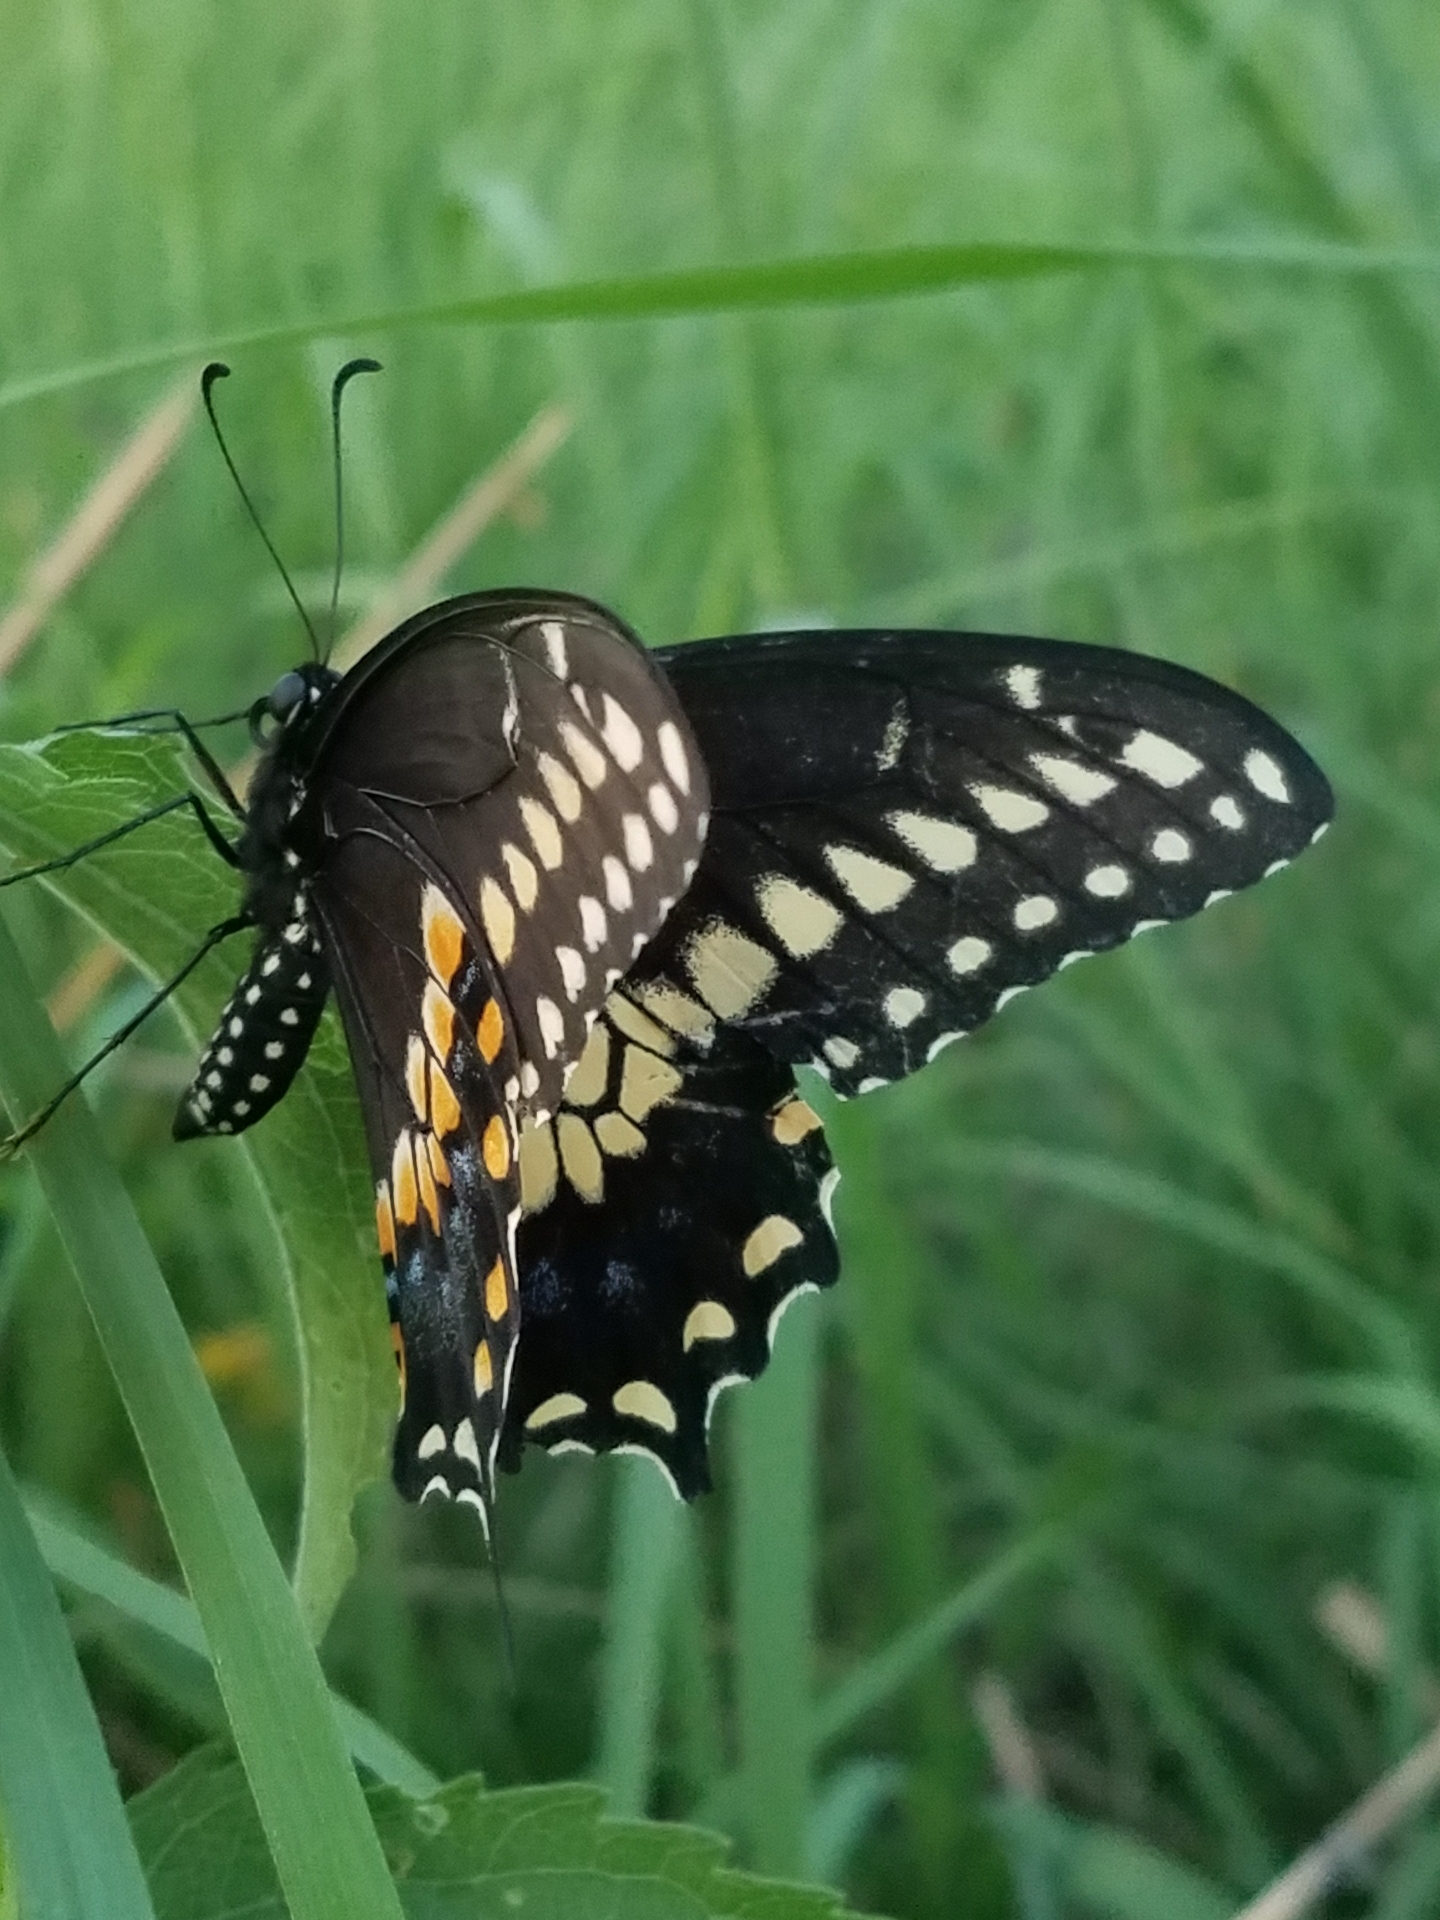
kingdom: Animalia
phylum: Arthropoda
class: Insecta
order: Lepidoptera
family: Papilionidae
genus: Papilio
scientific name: Papilio polyxenes
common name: Black swallowtail
